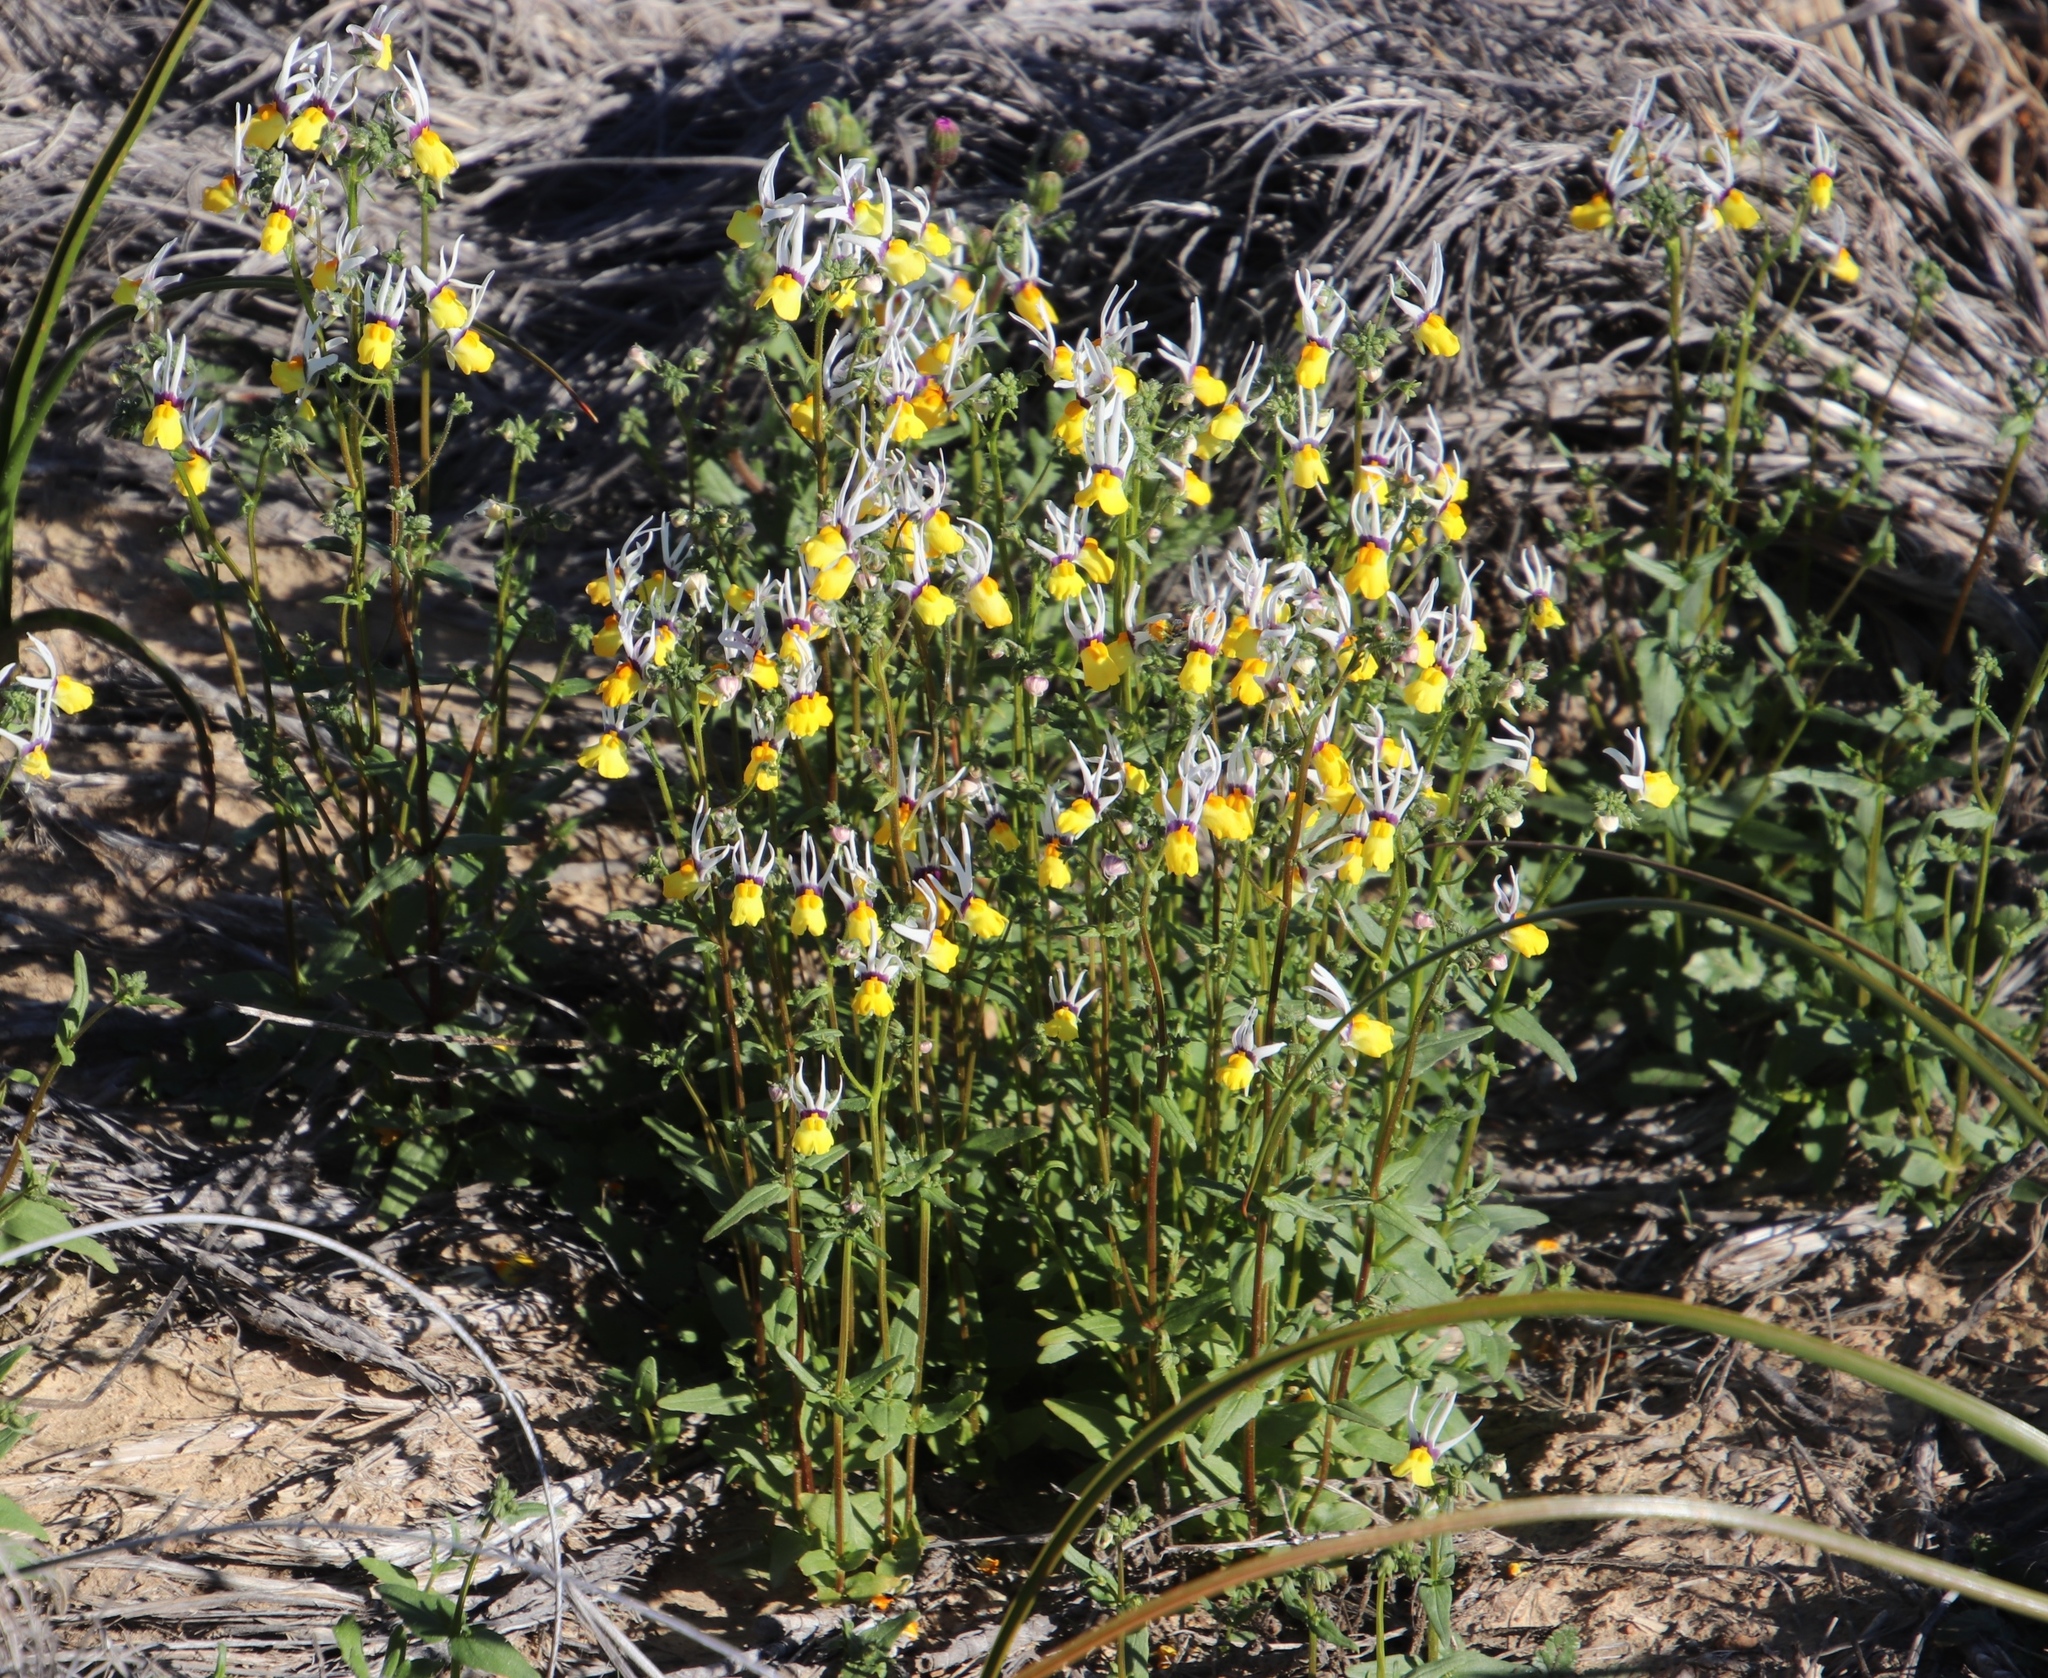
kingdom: Plantae
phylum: Tracheophyta
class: Magnoliopsida
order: Lamiales
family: Scrophulariaceae
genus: Nemesia
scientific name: Nemesia cheiranthus
